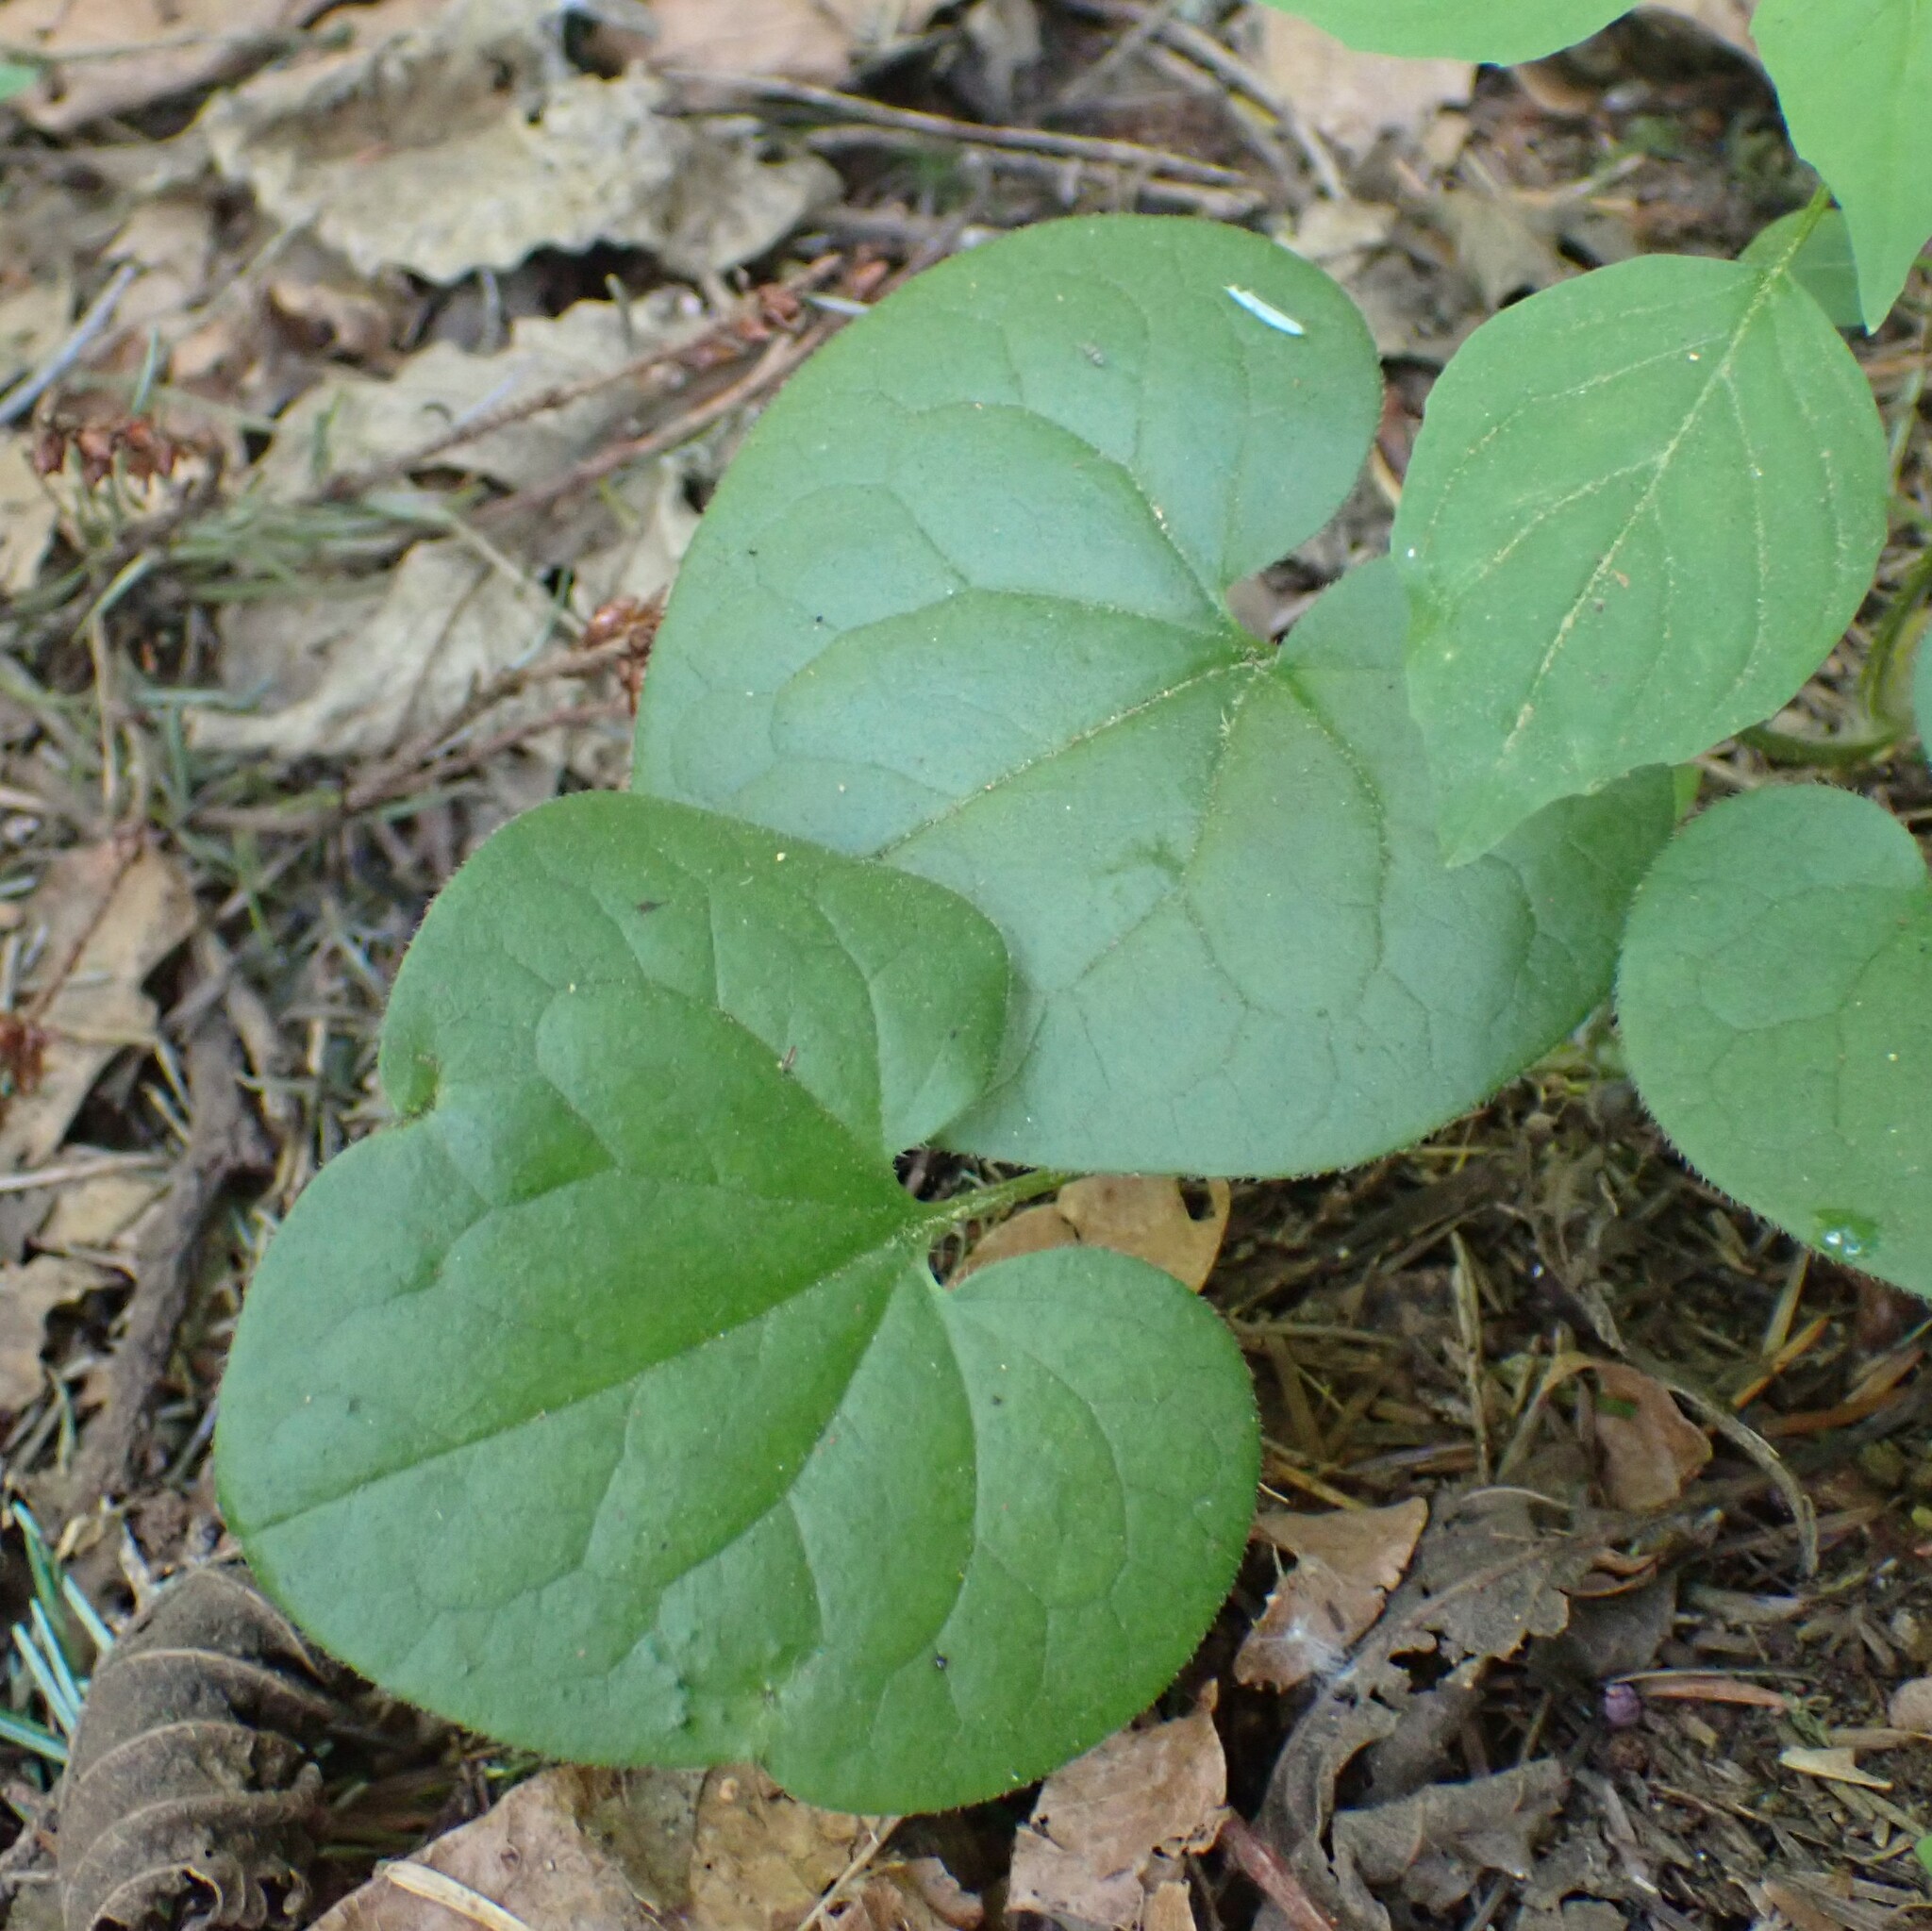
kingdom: Plantae
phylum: Tracheophyta
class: Magnoliopsida
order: Piperales
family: Aristolochiaceae
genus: Asarum
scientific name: Asarum caudatum
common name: Wild ginger
